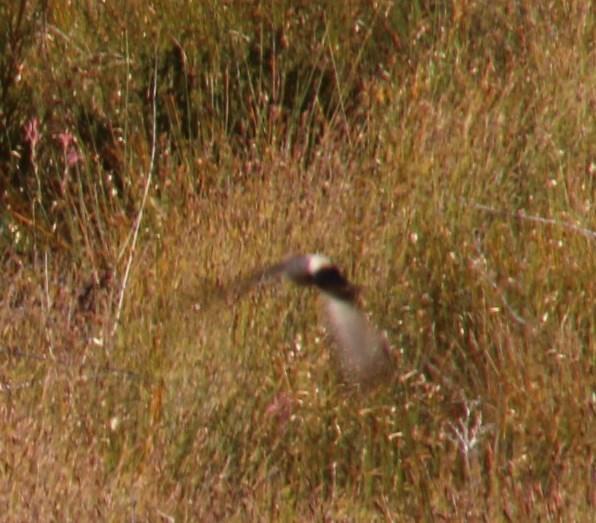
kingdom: Animalia
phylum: Chordata
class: Aves
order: Passeriformes
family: Hirundinidae
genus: Ptyonoprogne
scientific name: Ptyonoprogne fuligula
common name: Rock martin
